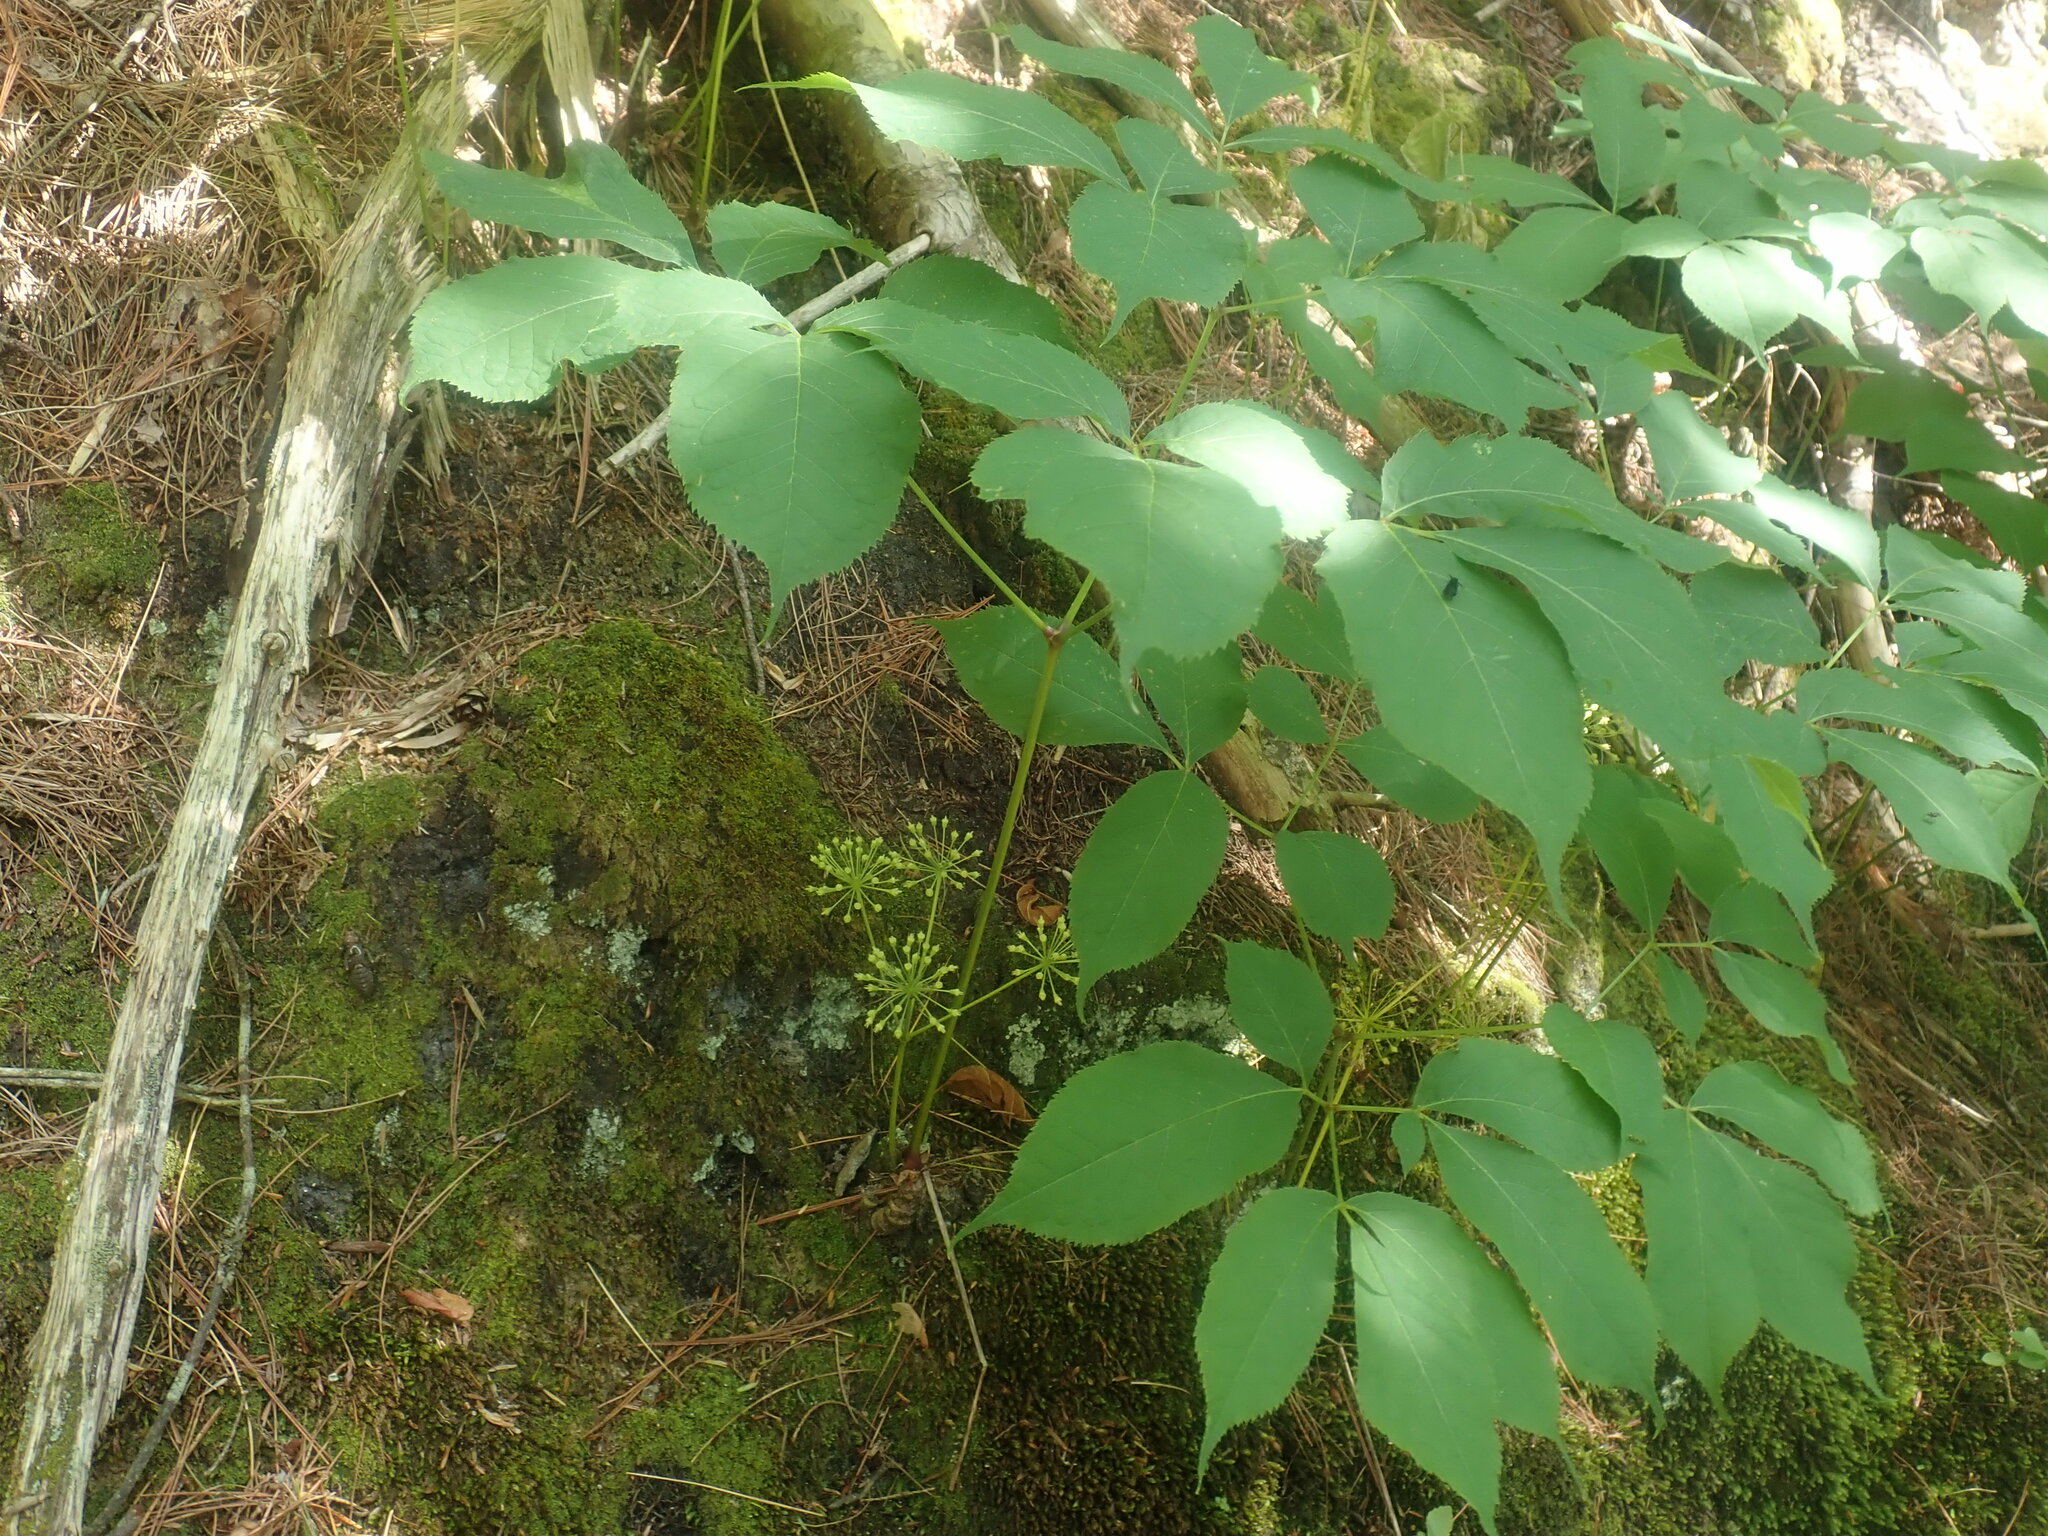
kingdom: Plantae
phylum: Tracheophyta
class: Magnoliopsida
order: Apiales
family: Araliaceae
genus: Aralia
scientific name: Aralia nudicaulis
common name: Wild sarsaparilla
